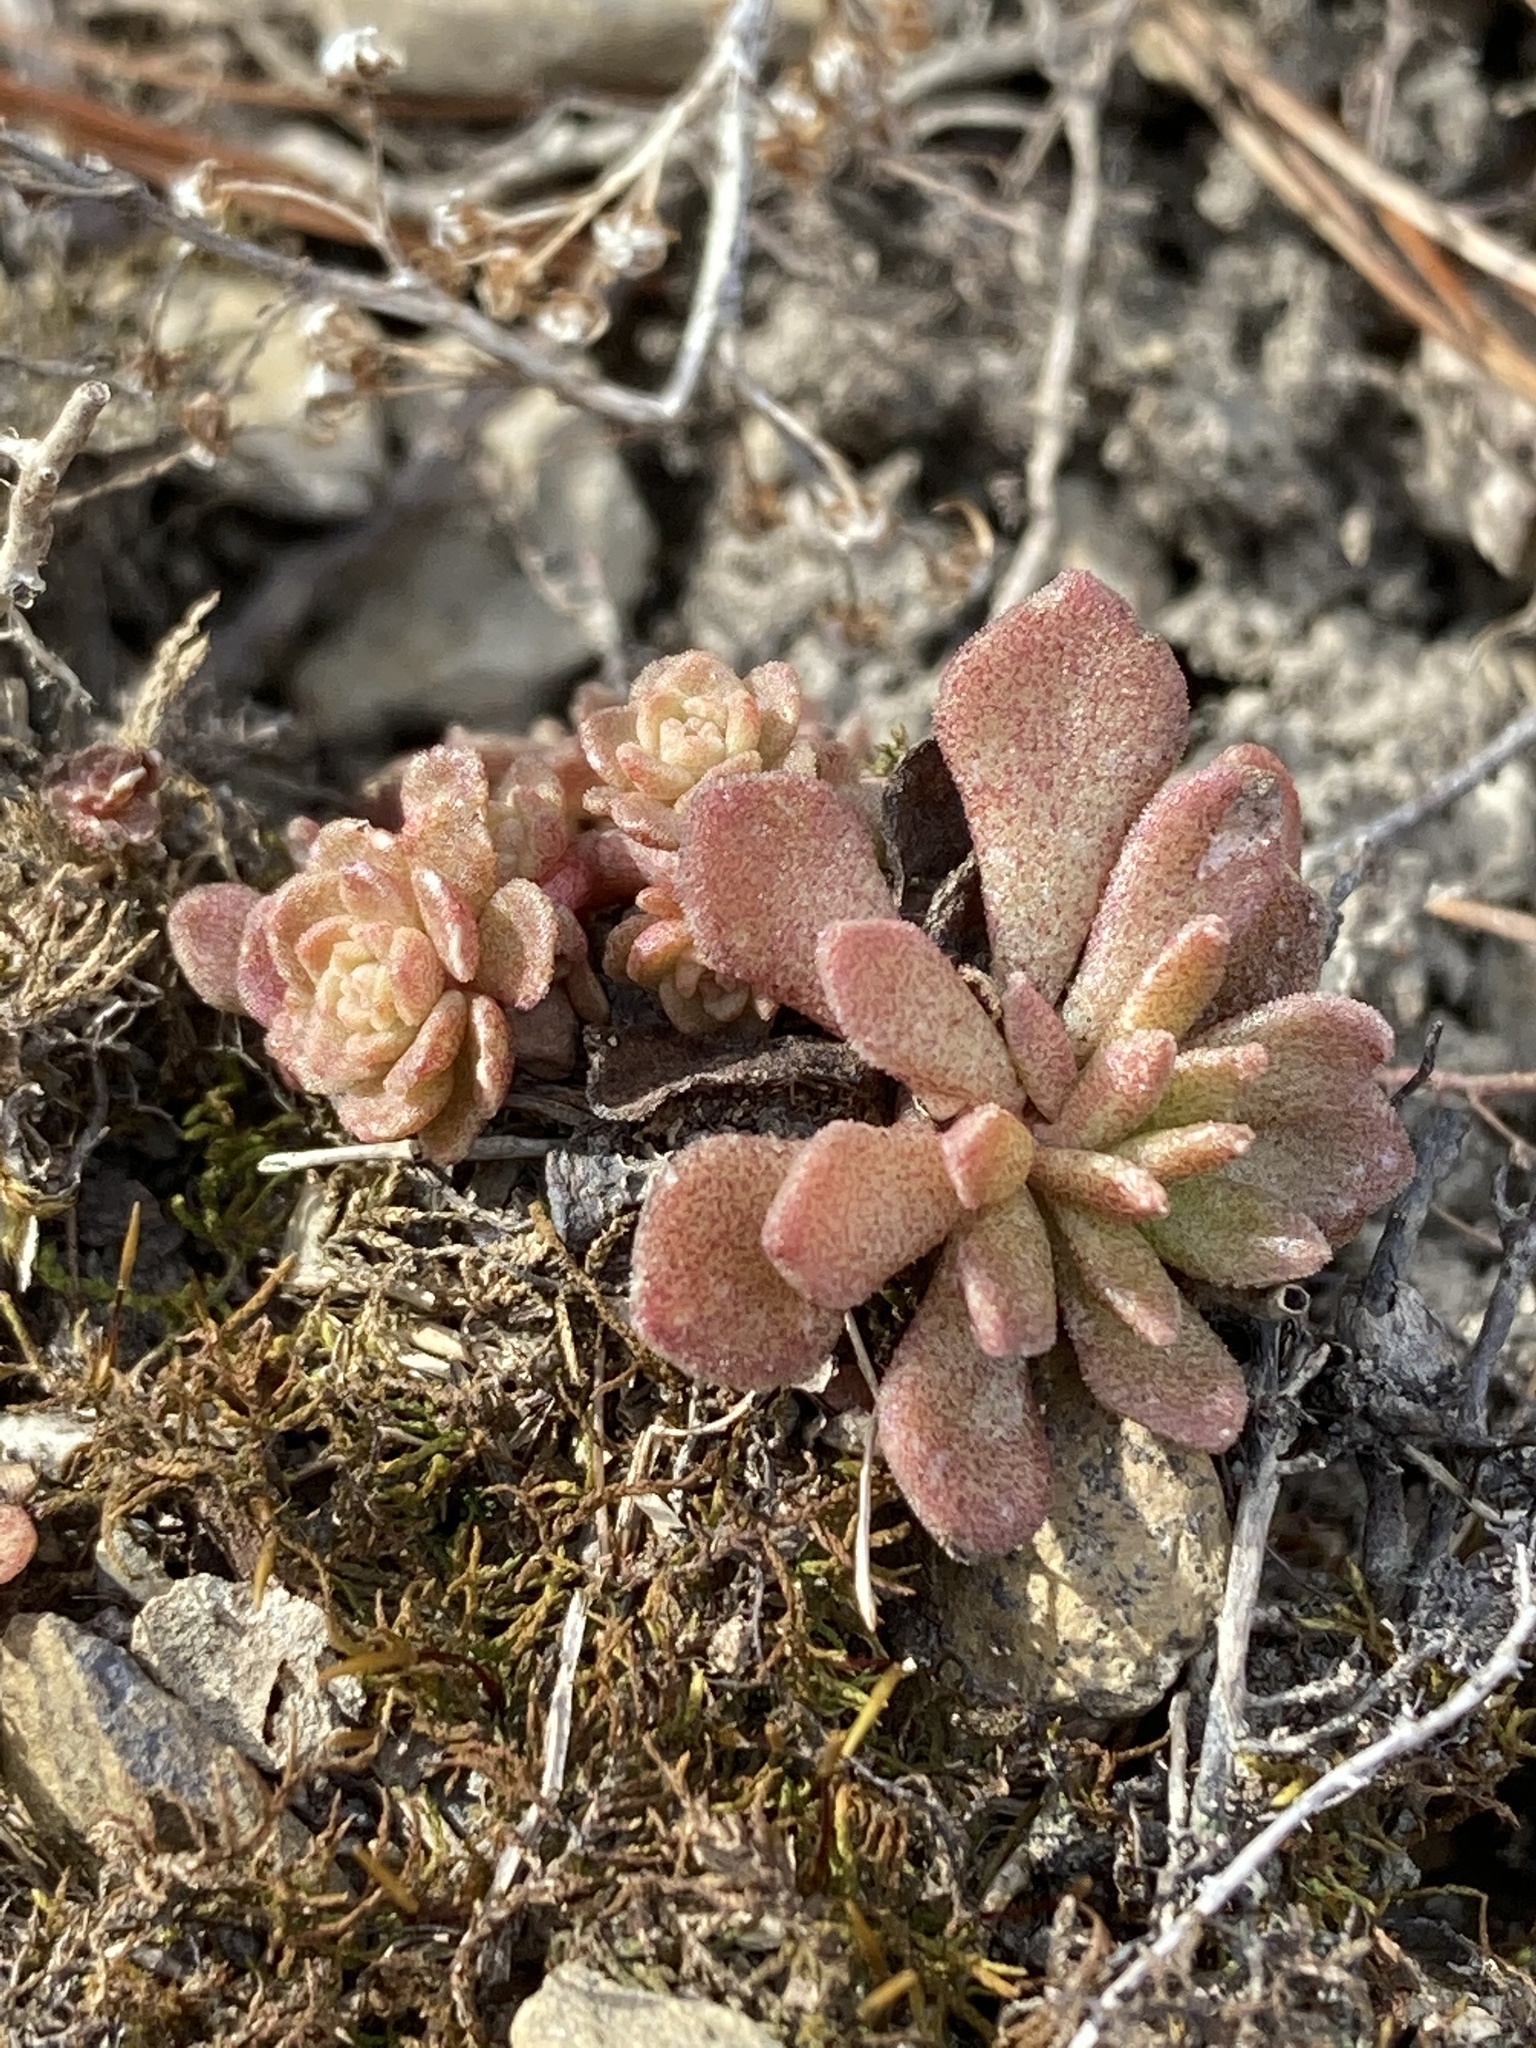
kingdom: Plantae
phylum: Tracheophyta
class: Magnoliopsida
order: Saxifragales
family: Crassulaceae
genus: Sedum
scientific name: Sedum glaucophyllum
